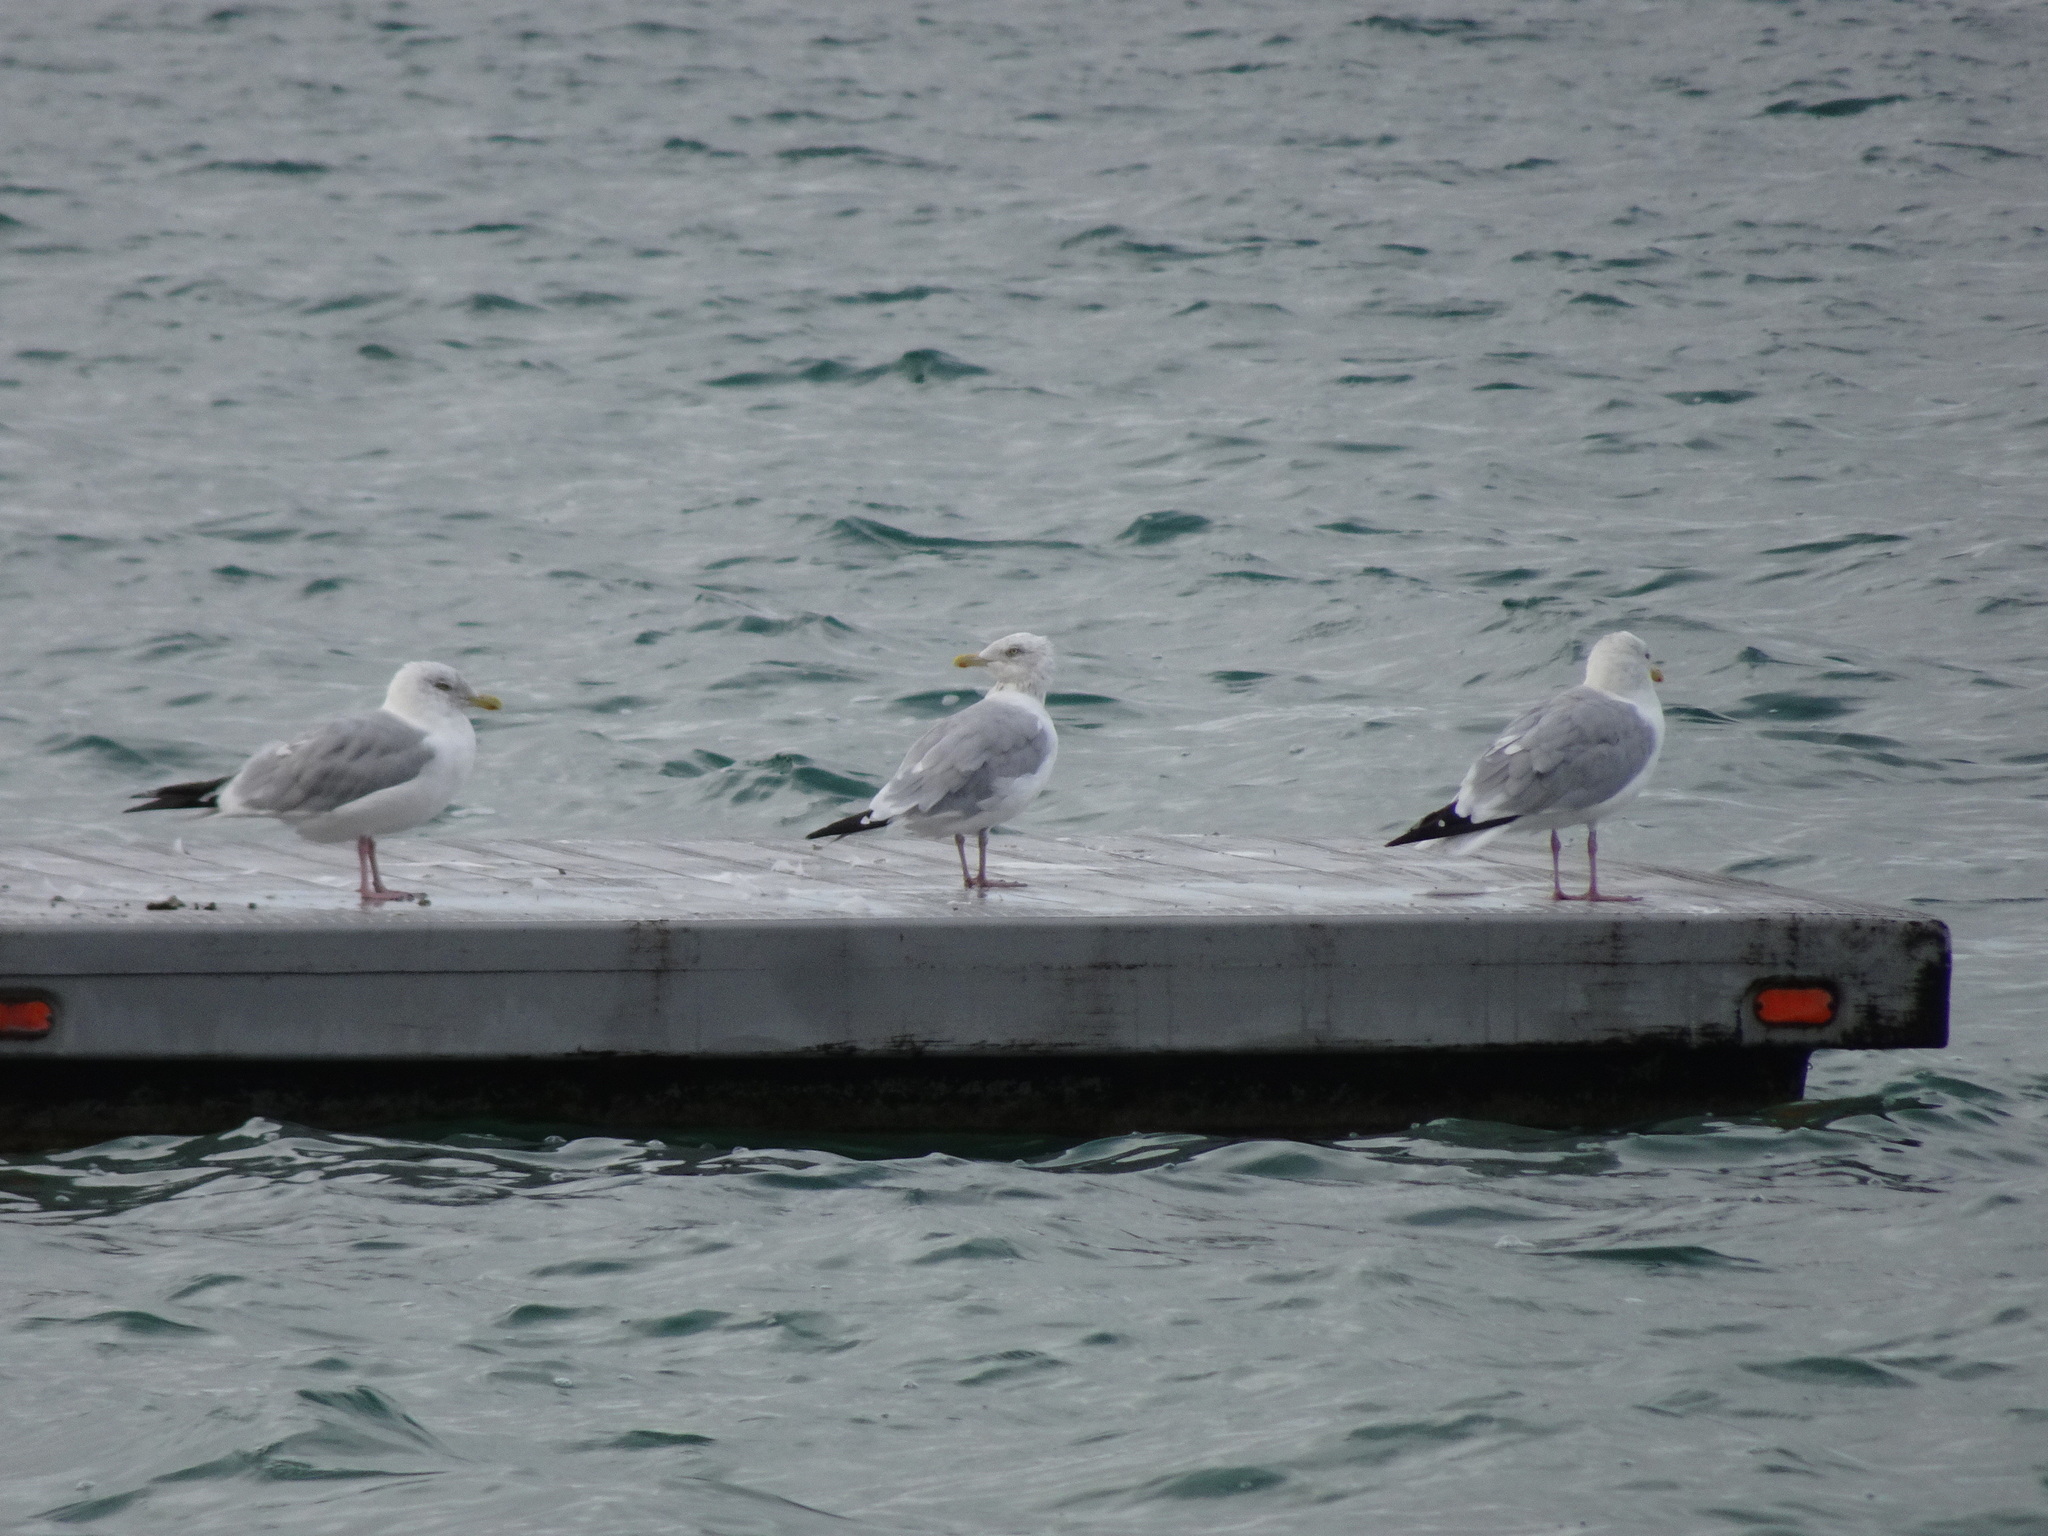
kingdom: Animalia
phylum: Chordata
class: Aves
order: Charadriiformes
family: Laridae
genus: Larus
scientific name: Larus argentatus
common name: Herring gull
